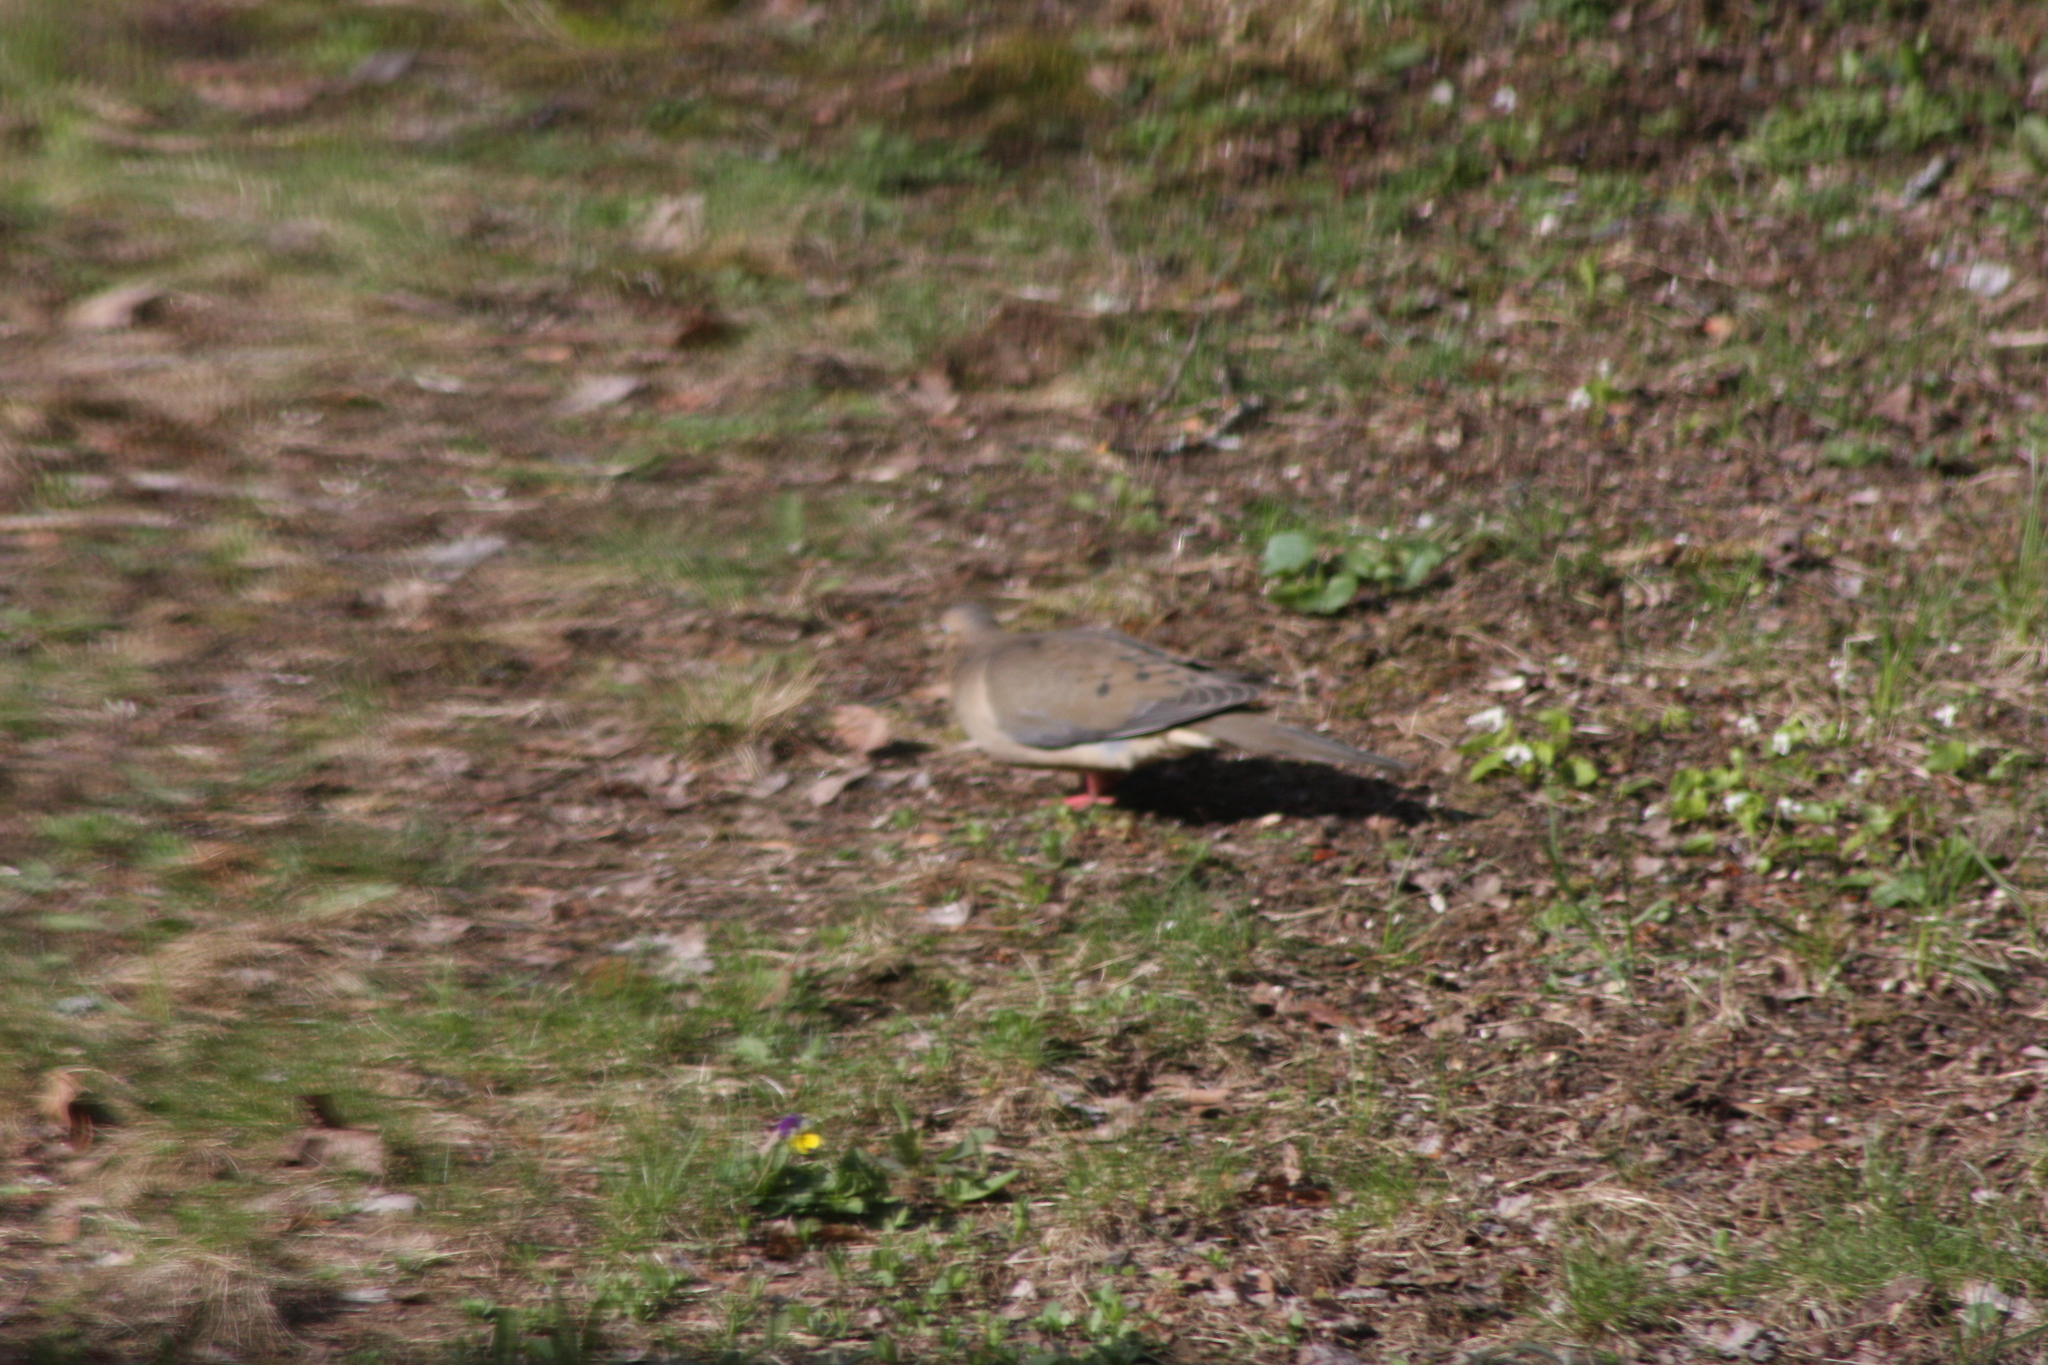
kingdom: Animalia
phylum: Chordata
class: Aves
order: Columbiformes
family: Columbidae
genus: Zenaida
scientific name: Zenaida macroura
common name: Mourning dove
